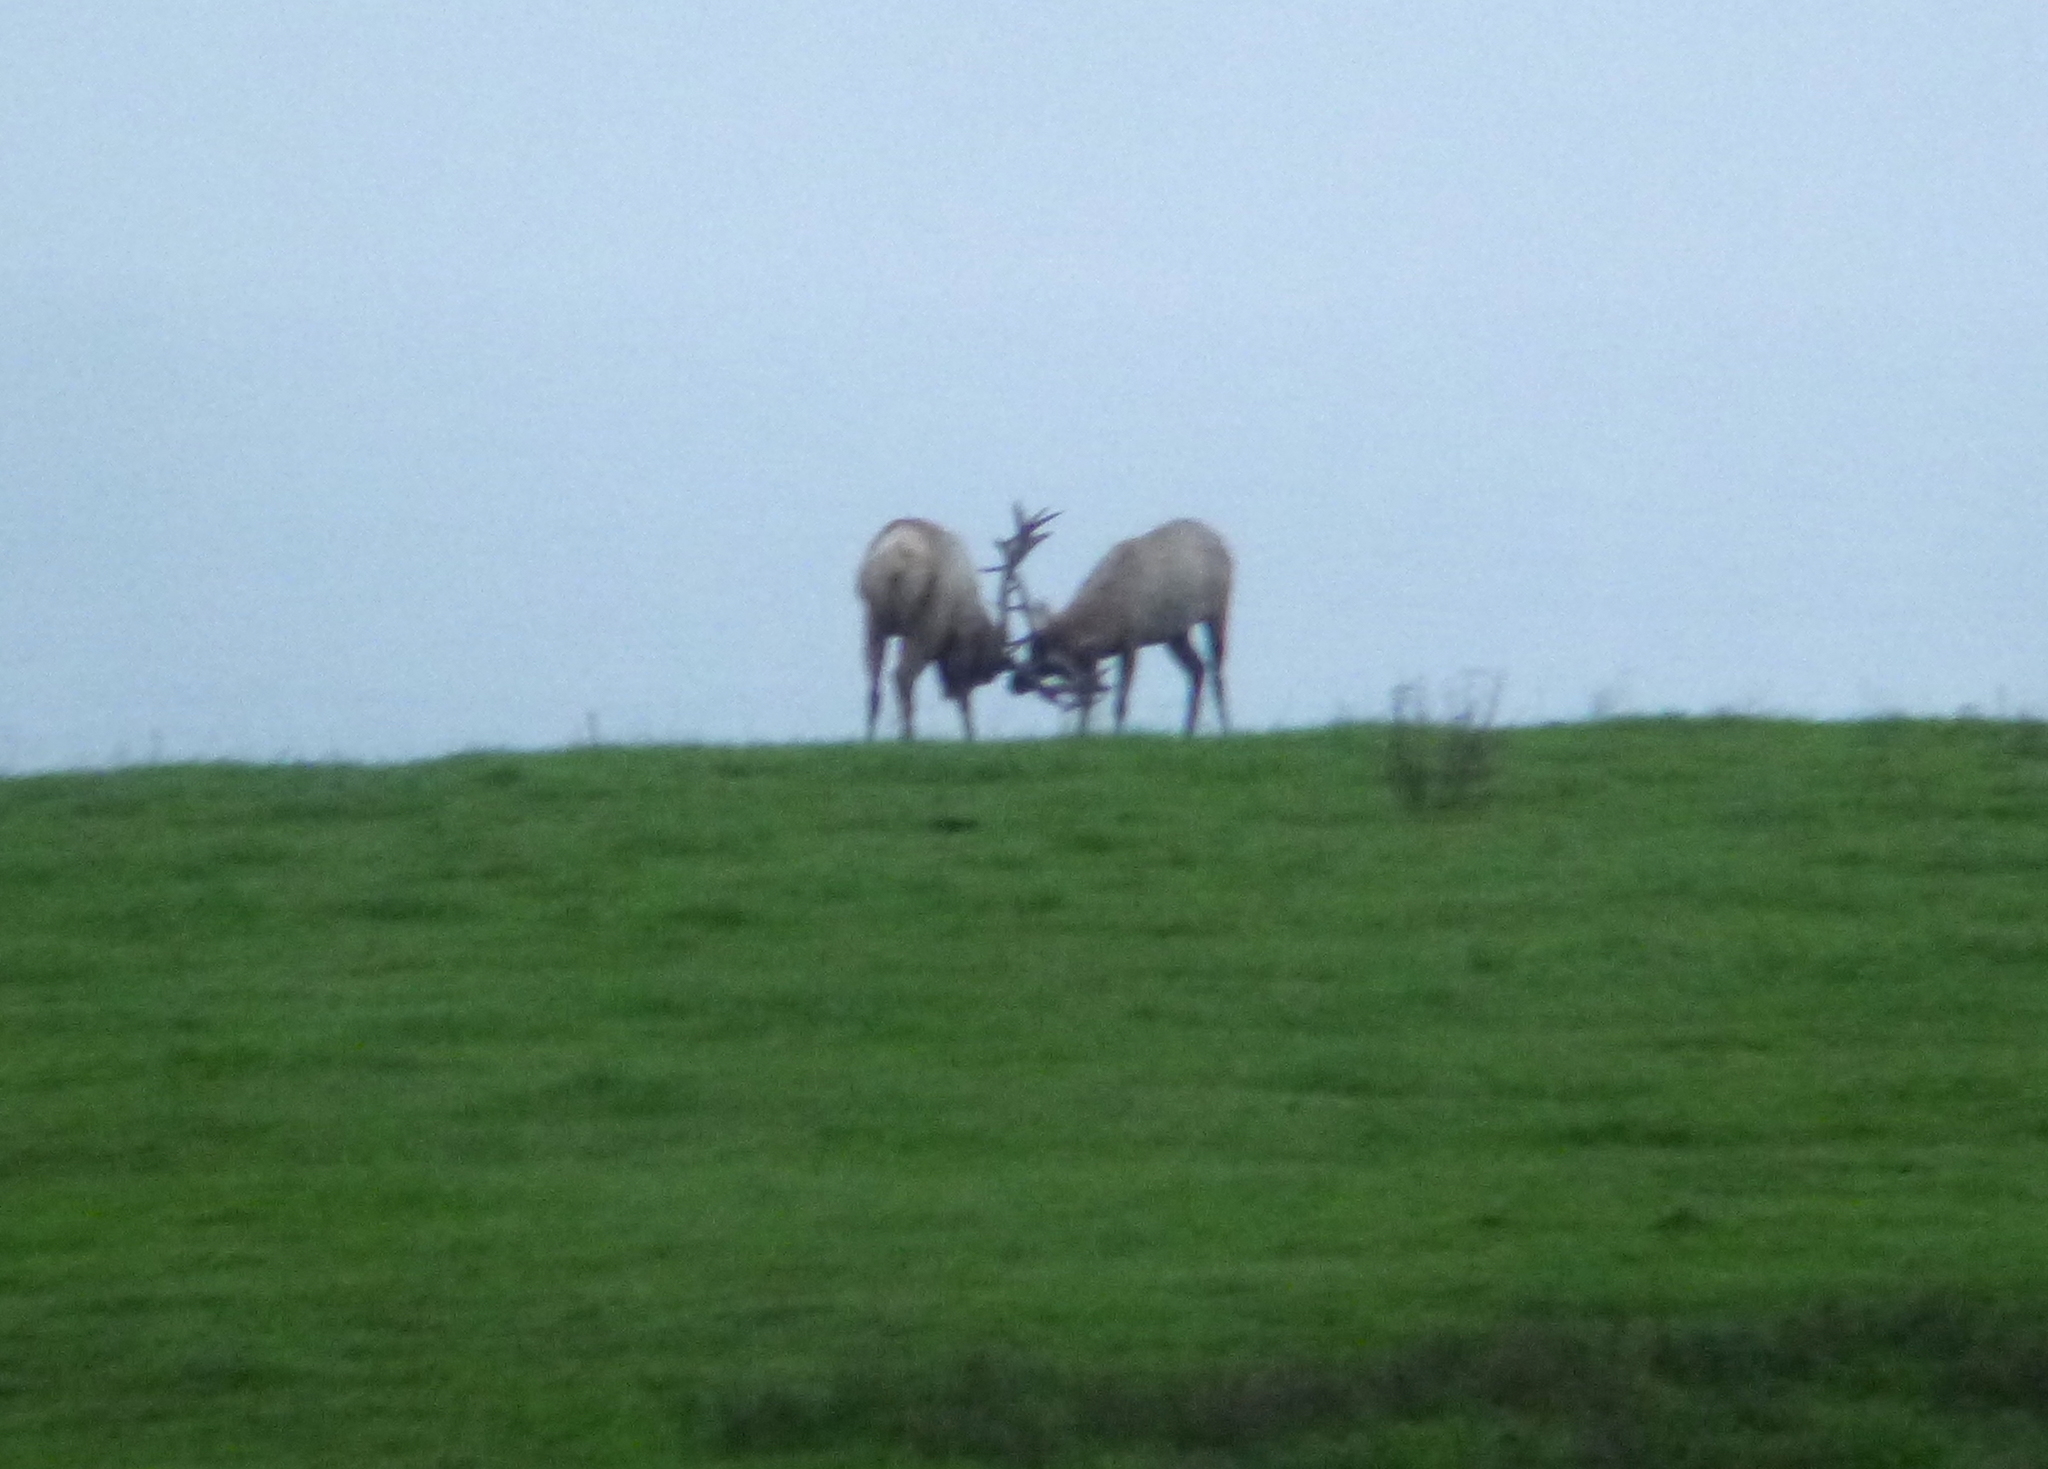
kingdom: Animalia
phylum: Chordata
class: Mammalia
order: Artiodactyla
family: Cervidae
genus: Cervus
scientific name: Cervus elaphus
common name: Red deer
